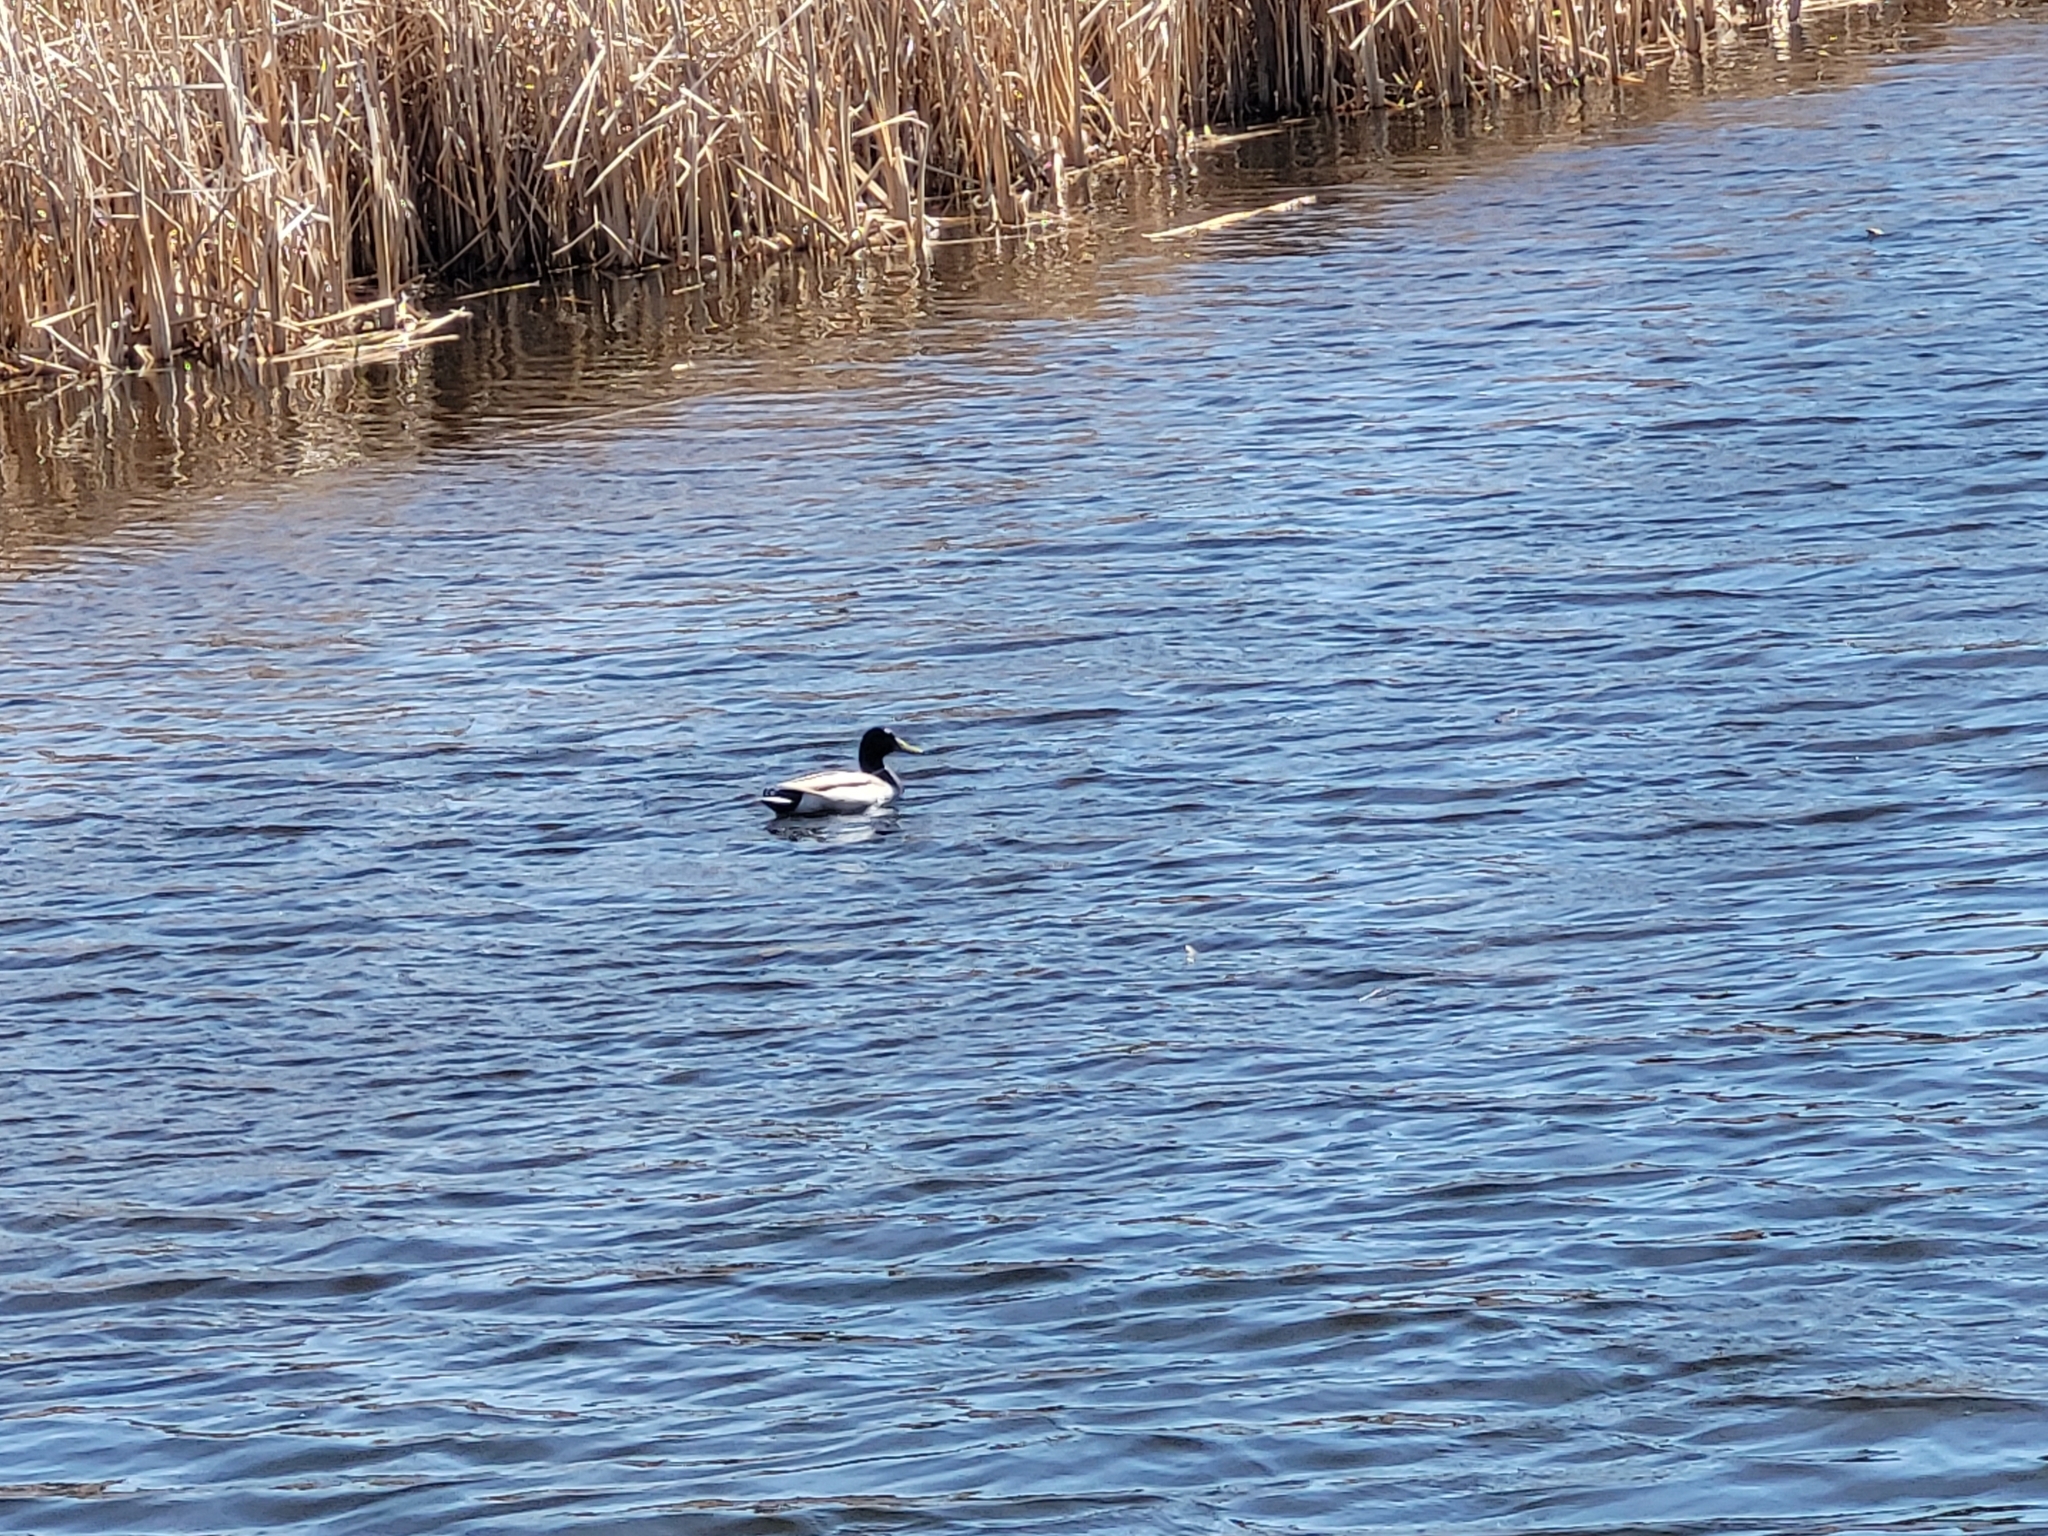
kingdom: Animalia
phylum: Chordata
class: Aves
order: Anseriformes
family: Anatidae
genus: Anas
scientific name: Anas platyrhynchos
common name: Mallard
